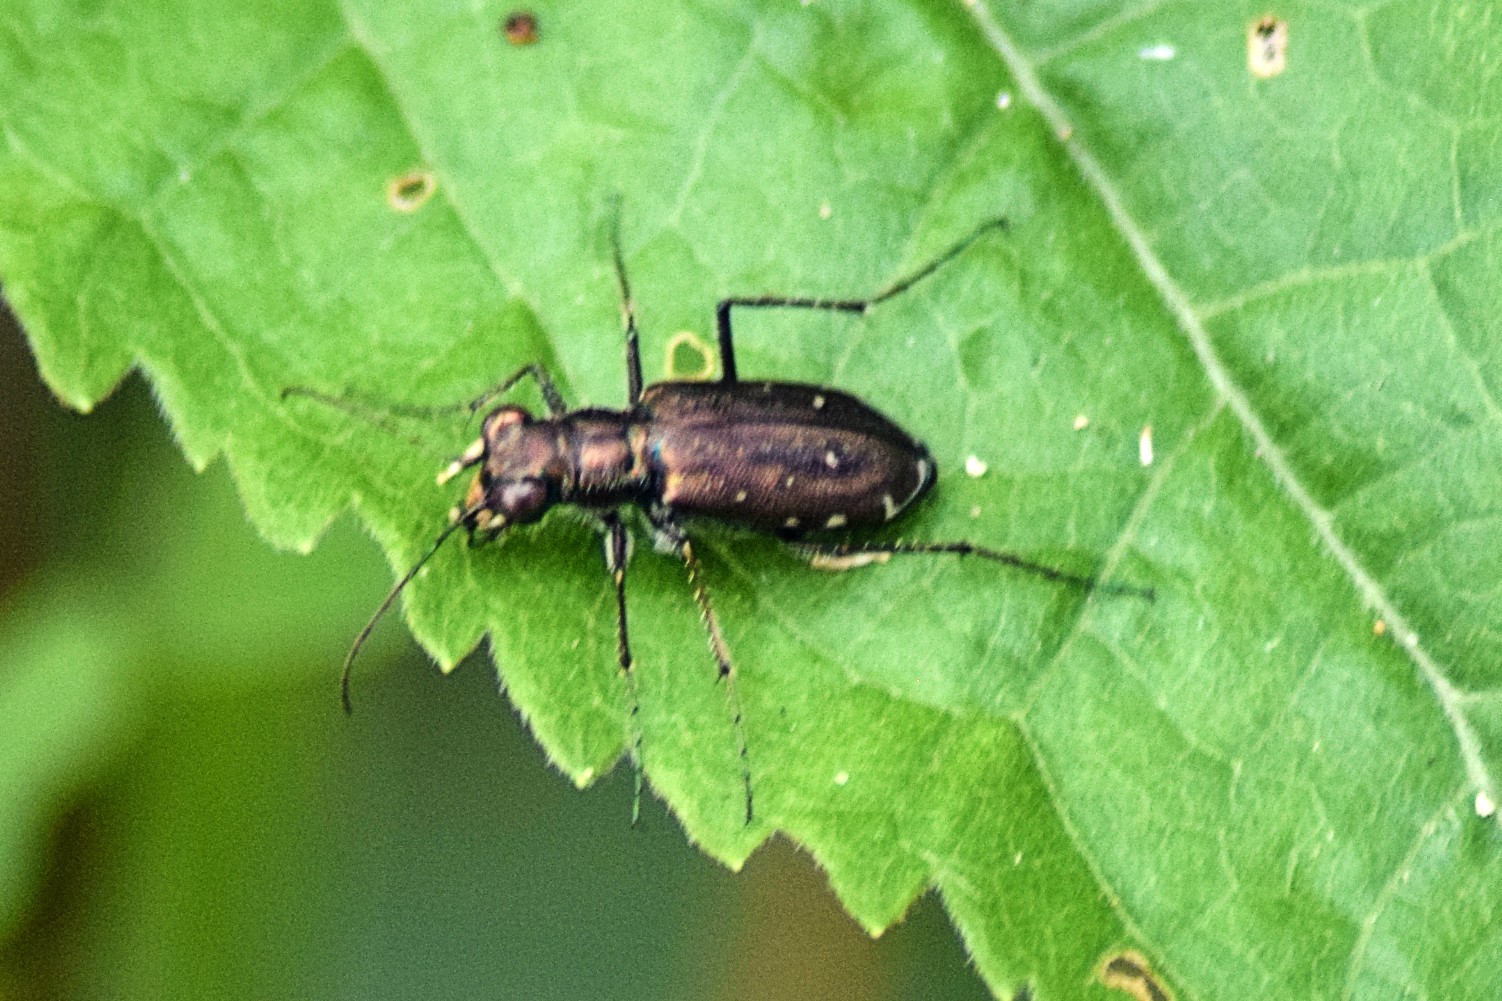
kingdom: Animalia
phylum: Arthropoda
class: Insecta
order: Coleoptera
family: Carabidae
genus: Cicindela
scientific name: Cicindela punctulata
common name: Punctured tiger beetle
